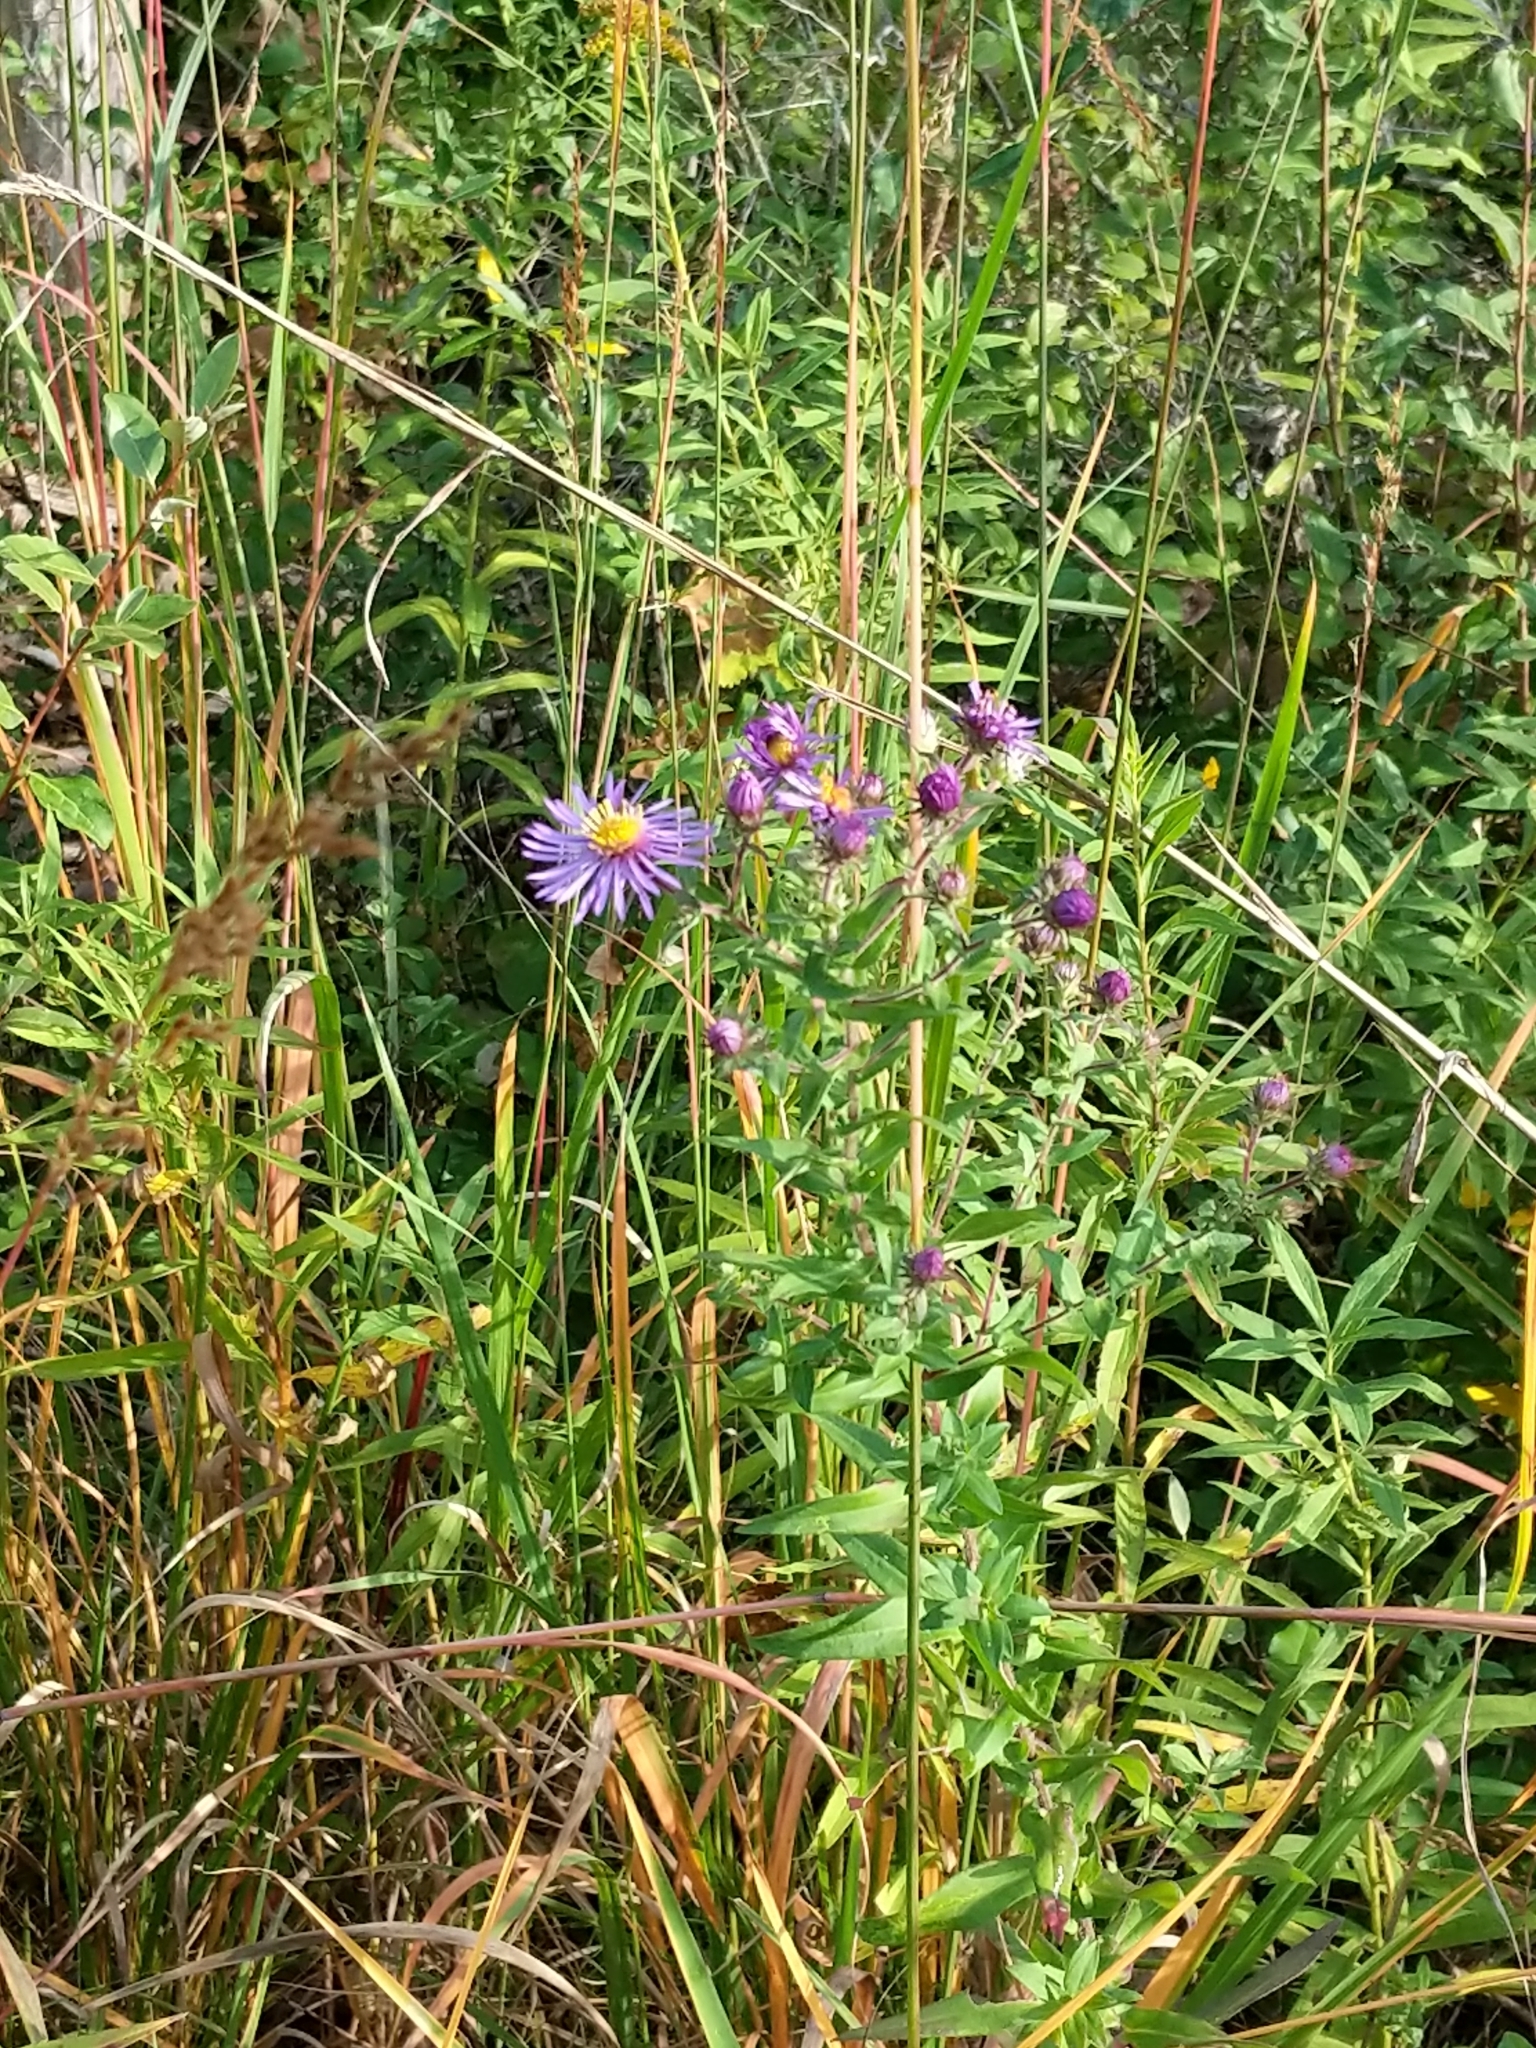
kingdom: Plantae
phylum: Tracheophyta
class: Magnoliopsida
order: Asterales
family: Asteraceae
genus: Symphyotrichum
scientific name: Symphyotrichum novae-angliae
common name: Michaelmas daisy
